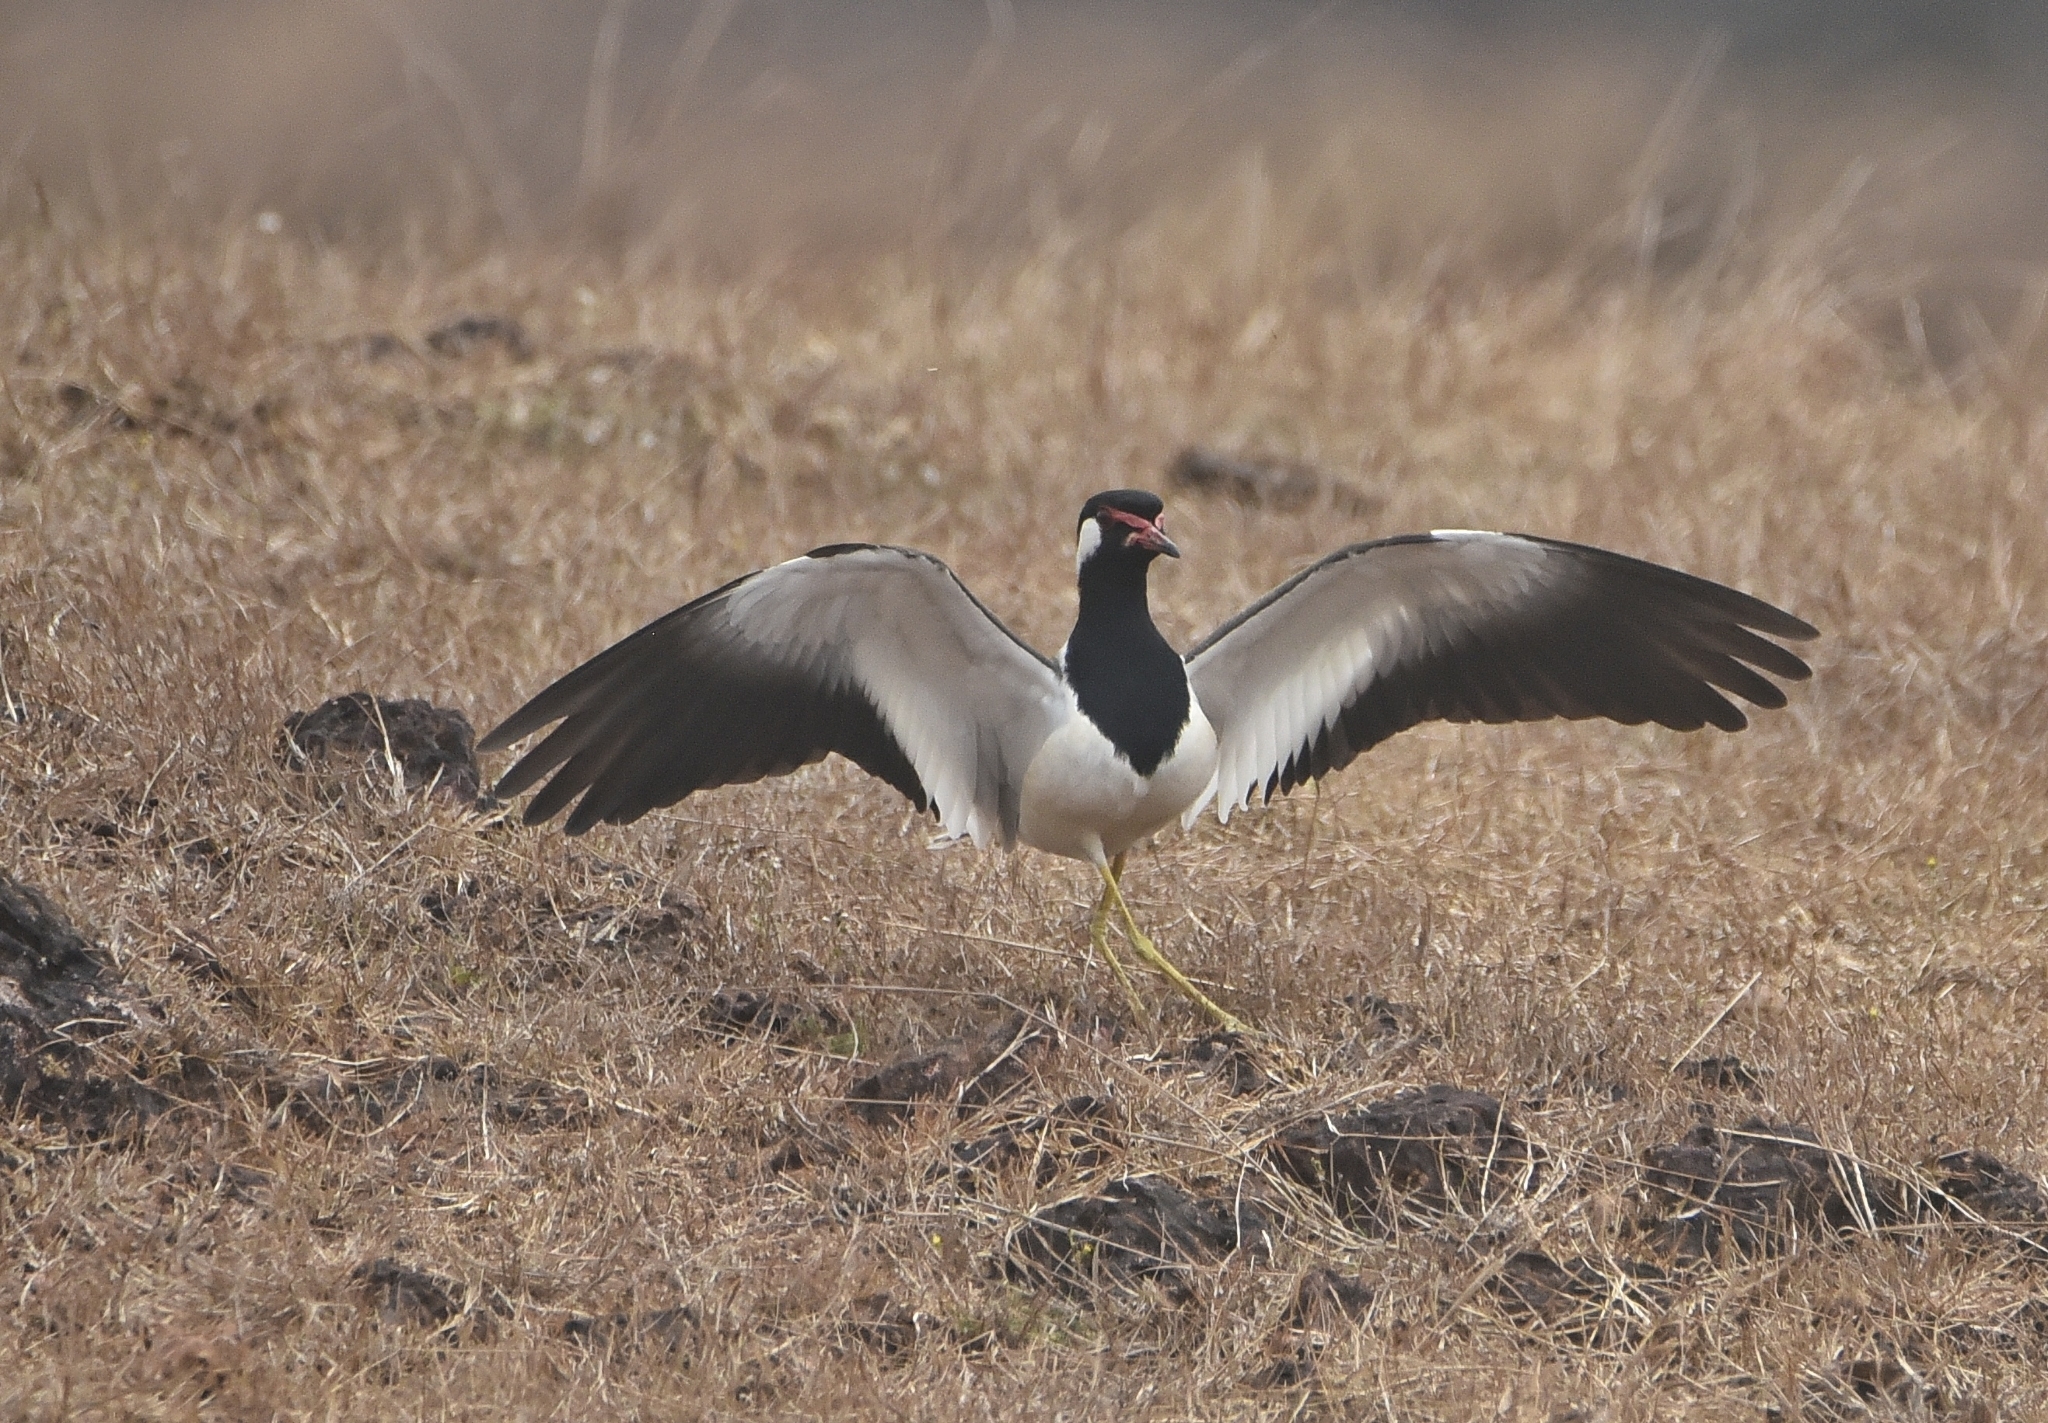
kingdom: Animalia
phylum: Chordata
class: Aves
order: Charadriiformes
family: Charadriidae
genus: Vanellus
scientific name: Vanellus indicus
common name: Red-wattled lapwing
